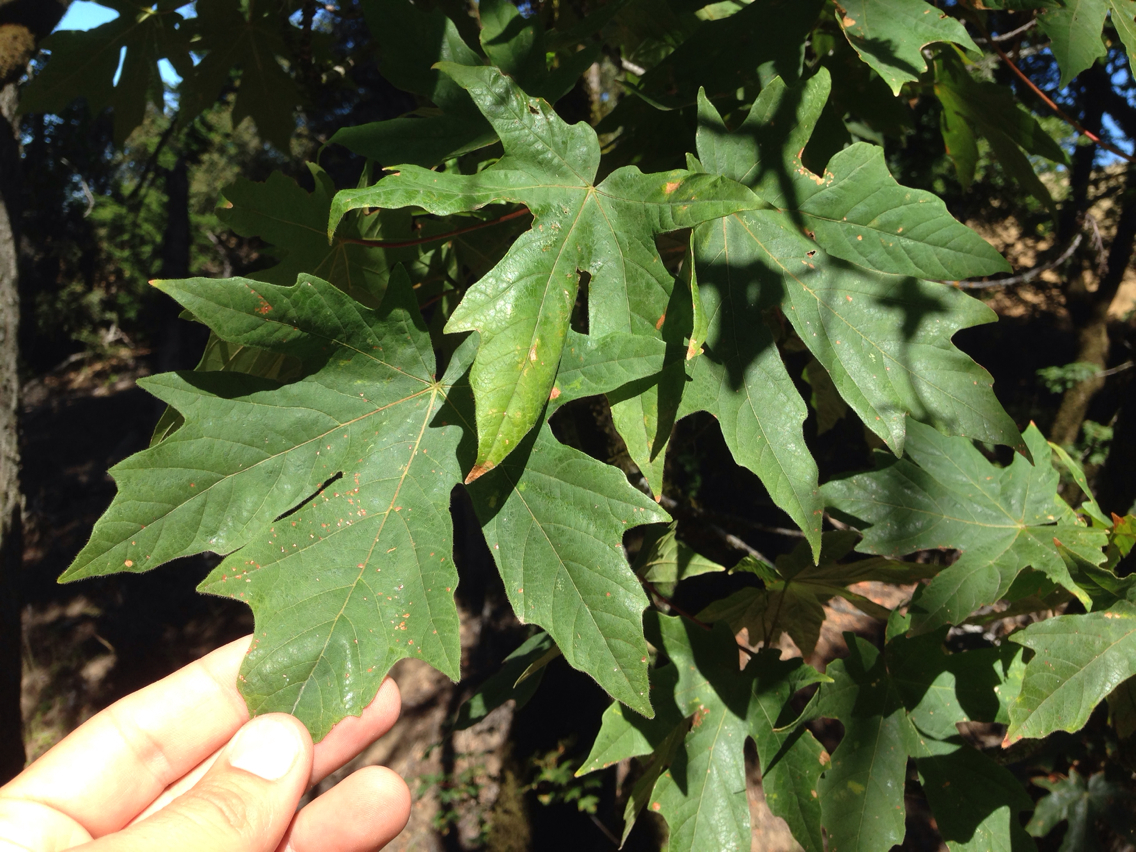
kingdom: Plantae
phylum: Tracheophyta
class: Magnoliopsida
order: Sapindales
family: Sapindaceae
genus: Acer
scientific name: Acer macrophyllum
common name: Oregon maple
